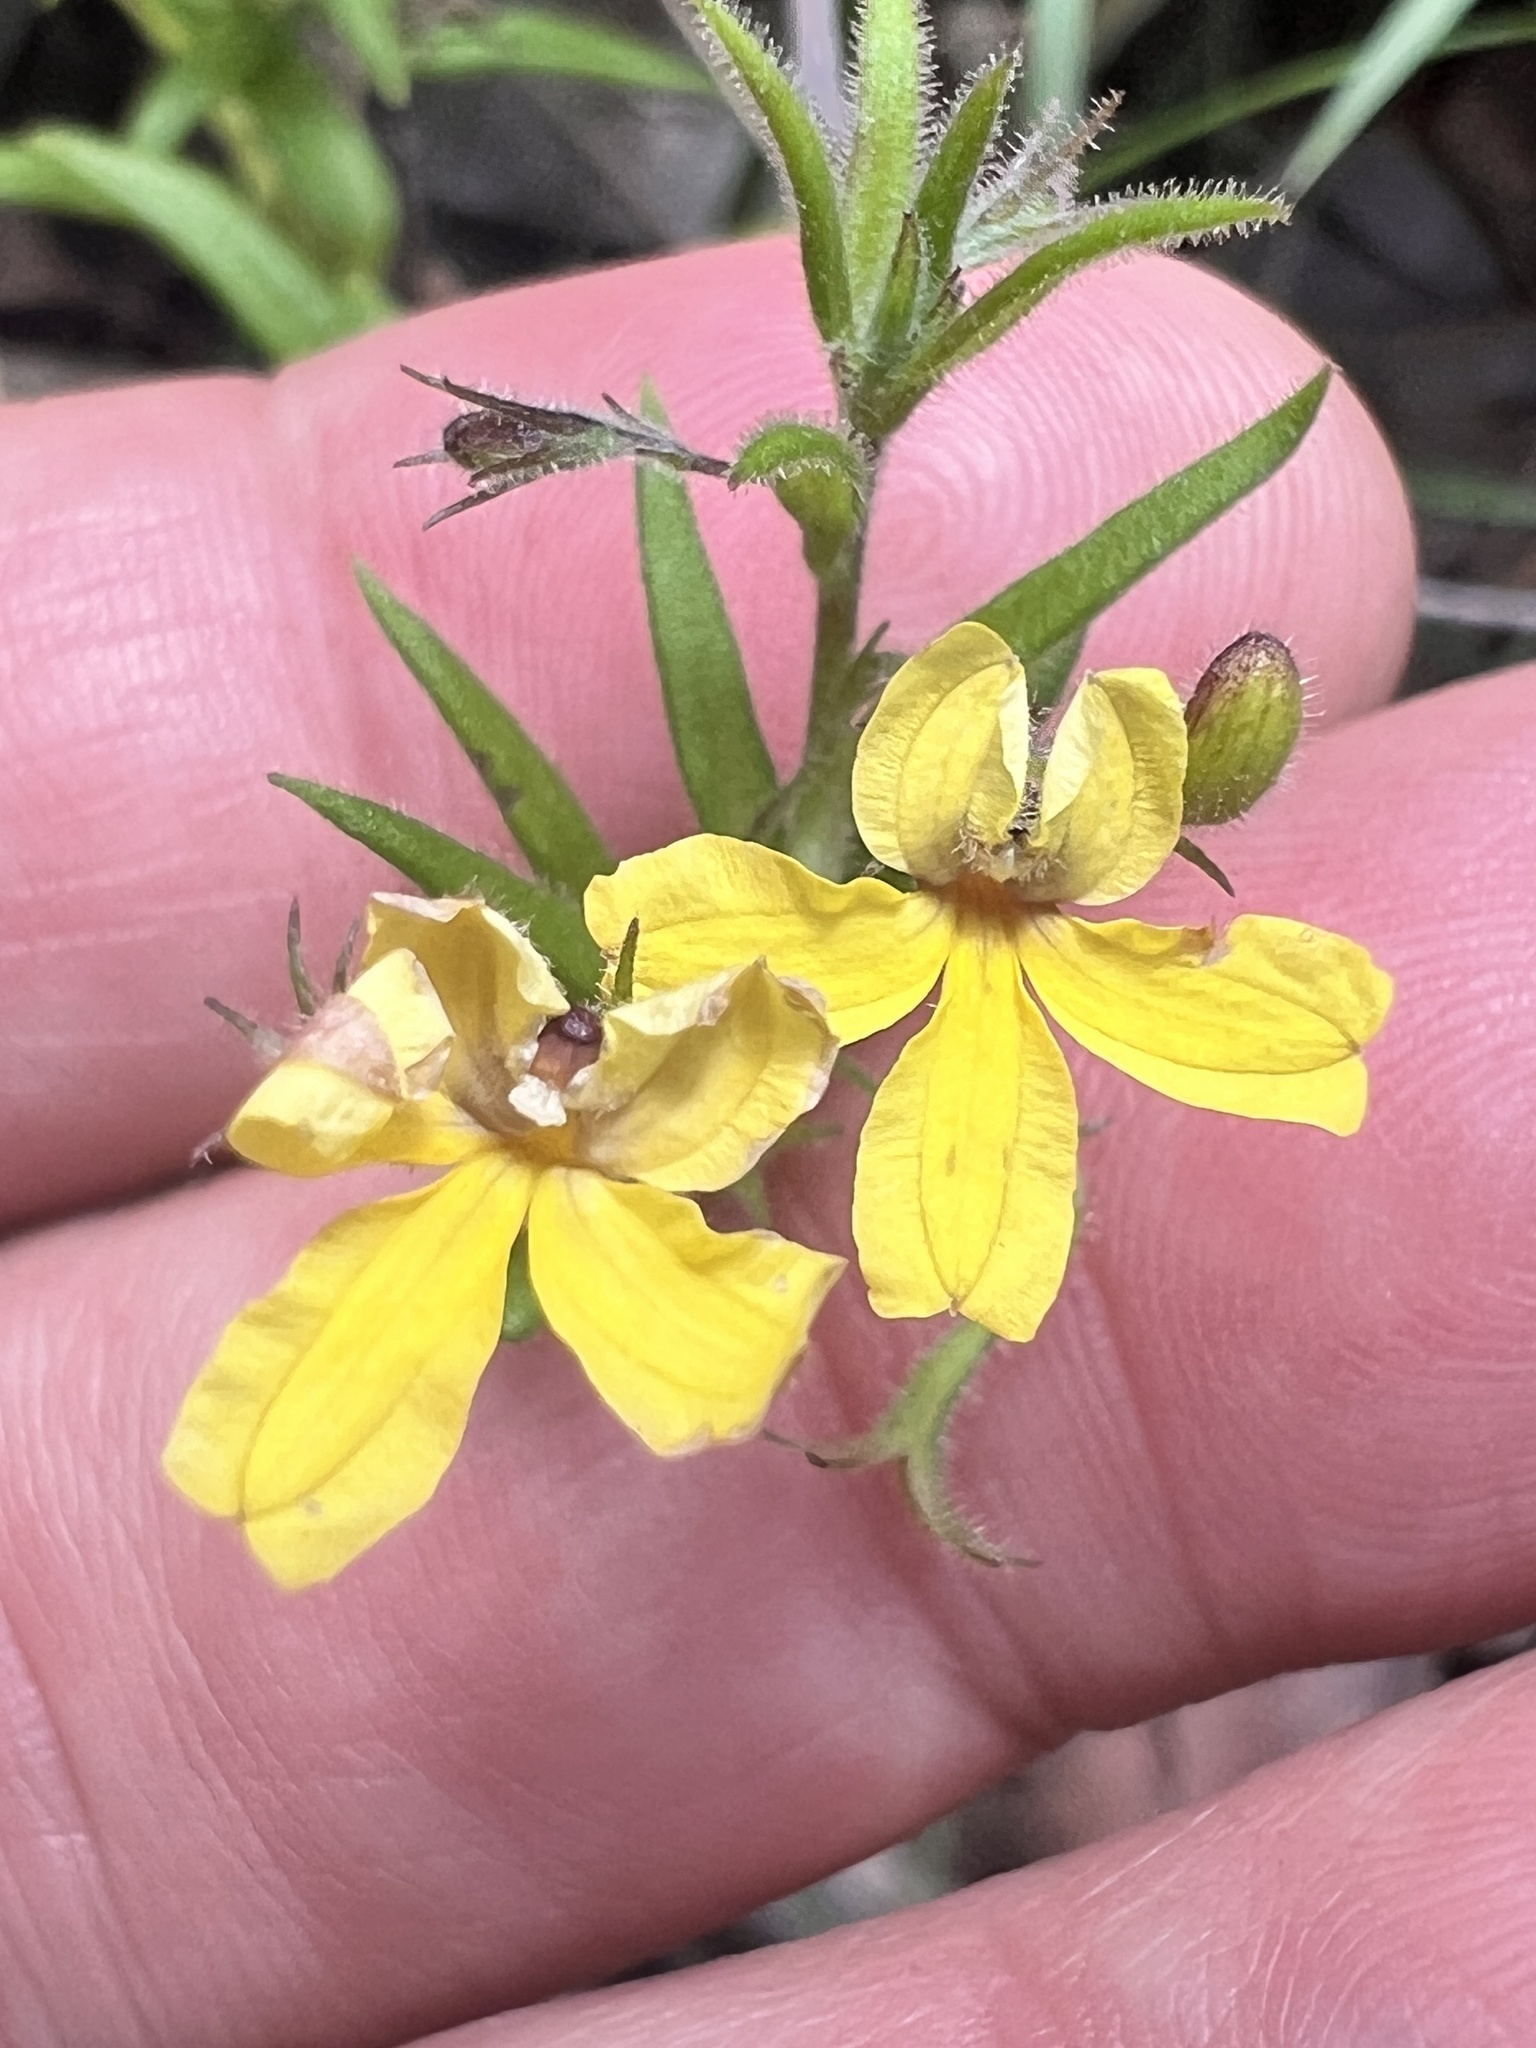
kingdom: Plantae
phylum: Tracheophyta
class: Magnoliopsida
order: Asterales
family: Goodeniaceae
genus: Goodenia
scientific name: Goodenia heterophylla
